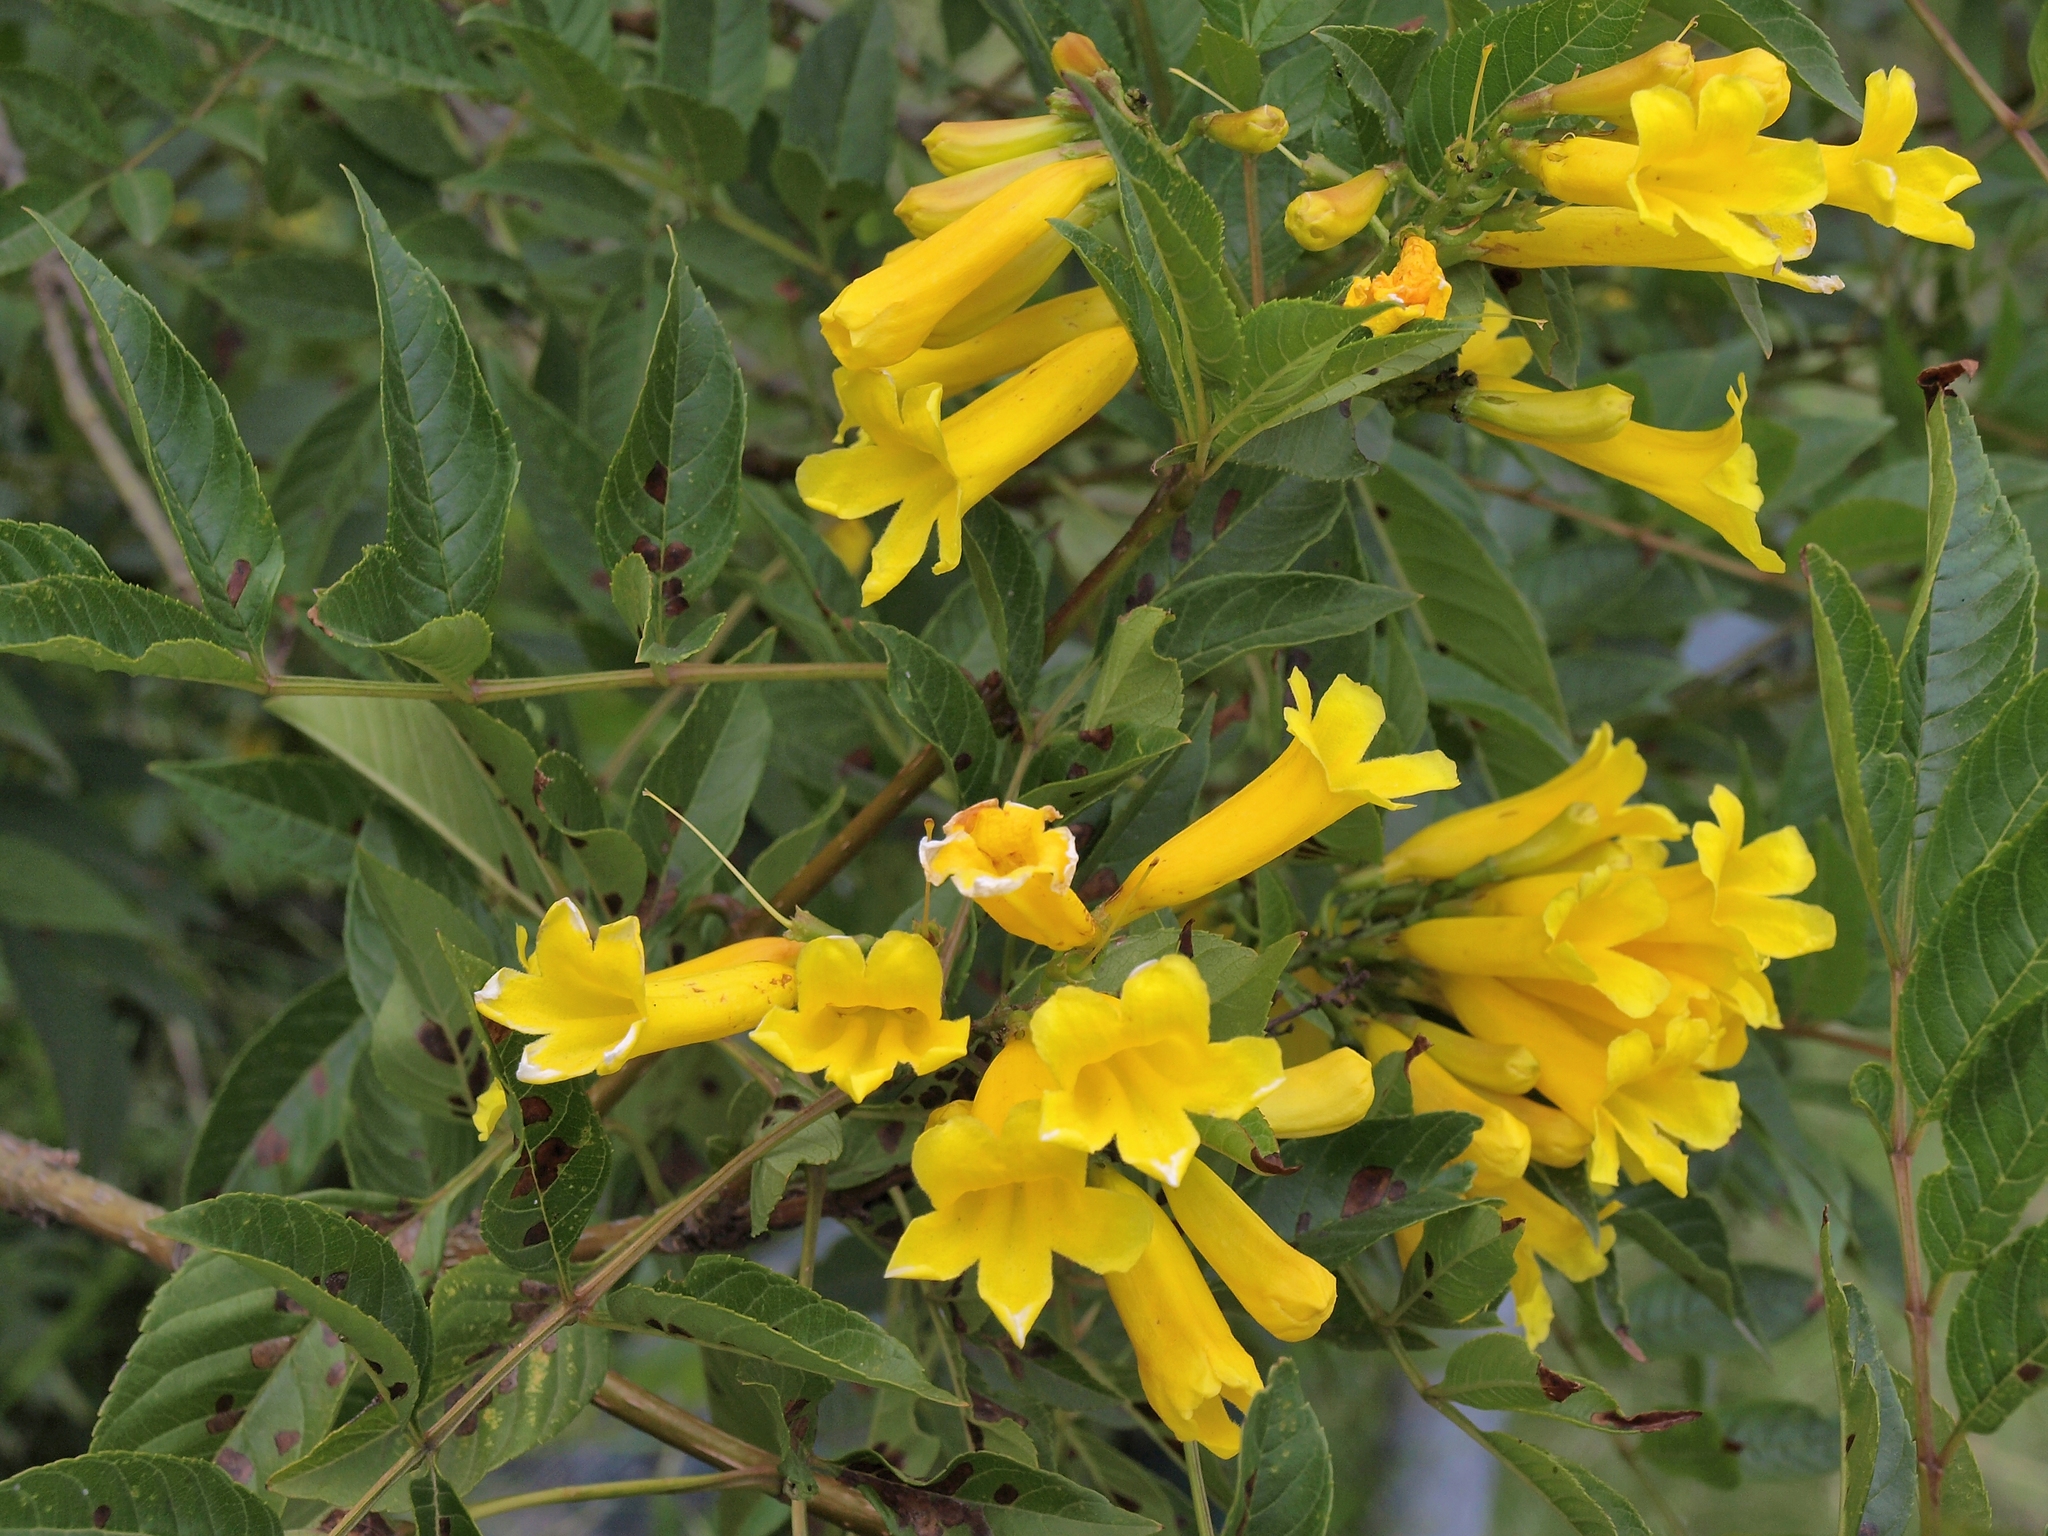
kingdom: Plantae
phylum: Tracheophyta
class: Magnoliopsida
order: Lamiales
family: Bignoniaceae
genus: Tecoma
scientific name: Tecoma stans
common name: Yellow trumpetbush
